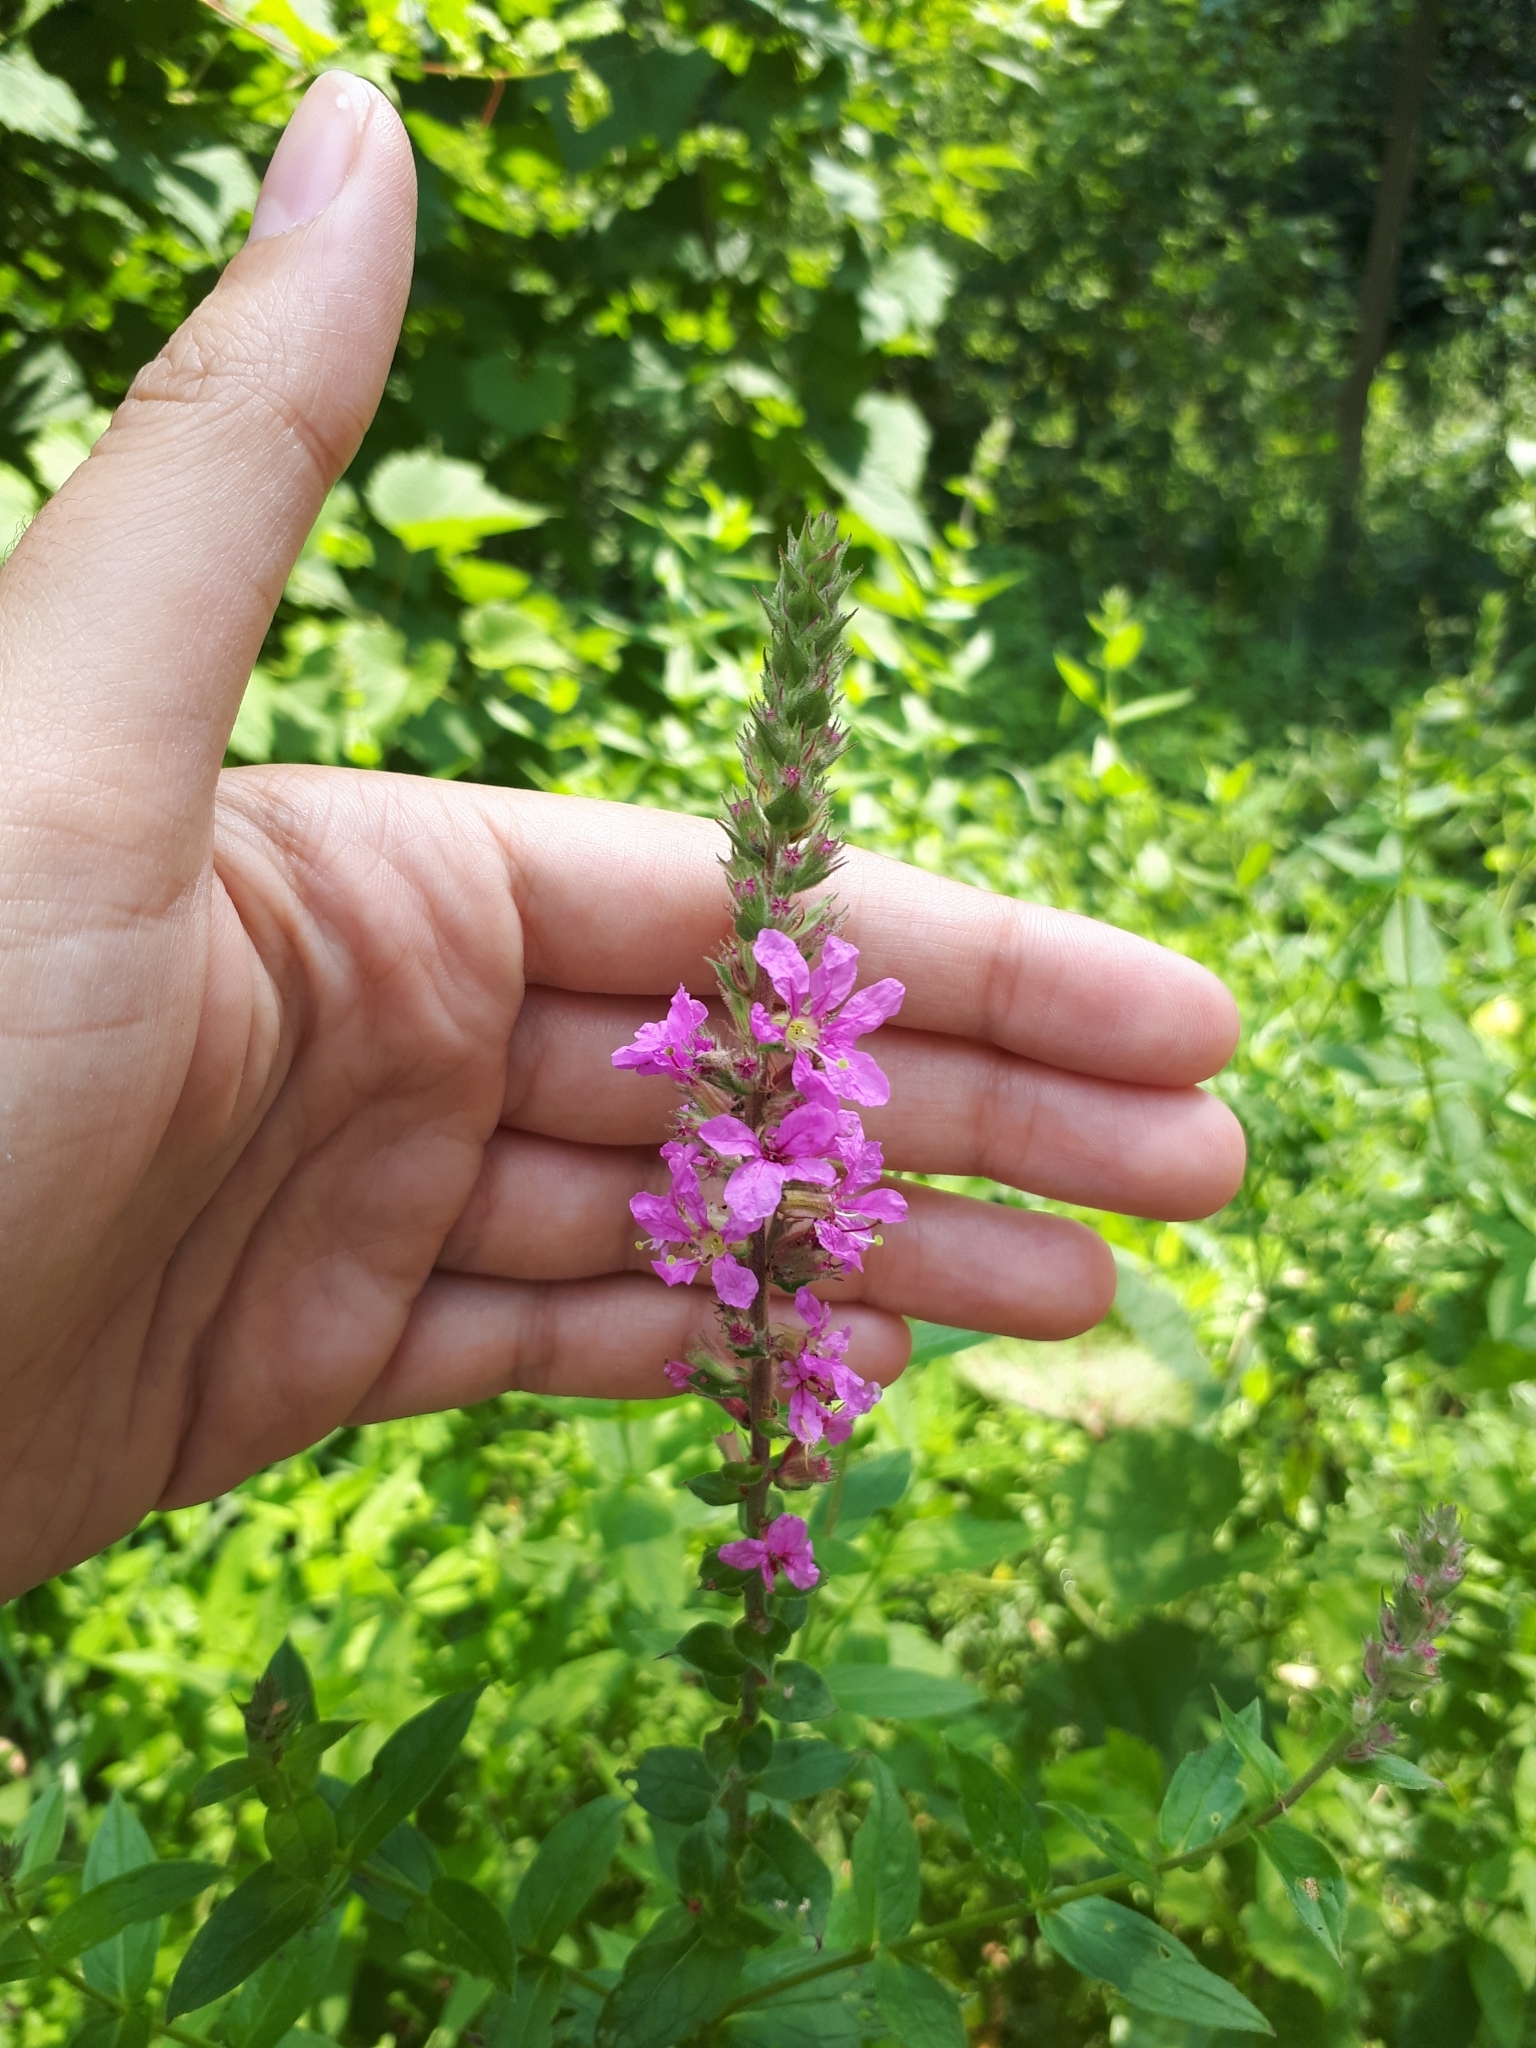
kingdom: Plantae
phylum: Tracheophyta
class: Magnoliopsida
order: Myrtales
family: Lythraceae
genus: Lythrum
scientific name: Lythrum salicaria
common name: Purple loosestrife
